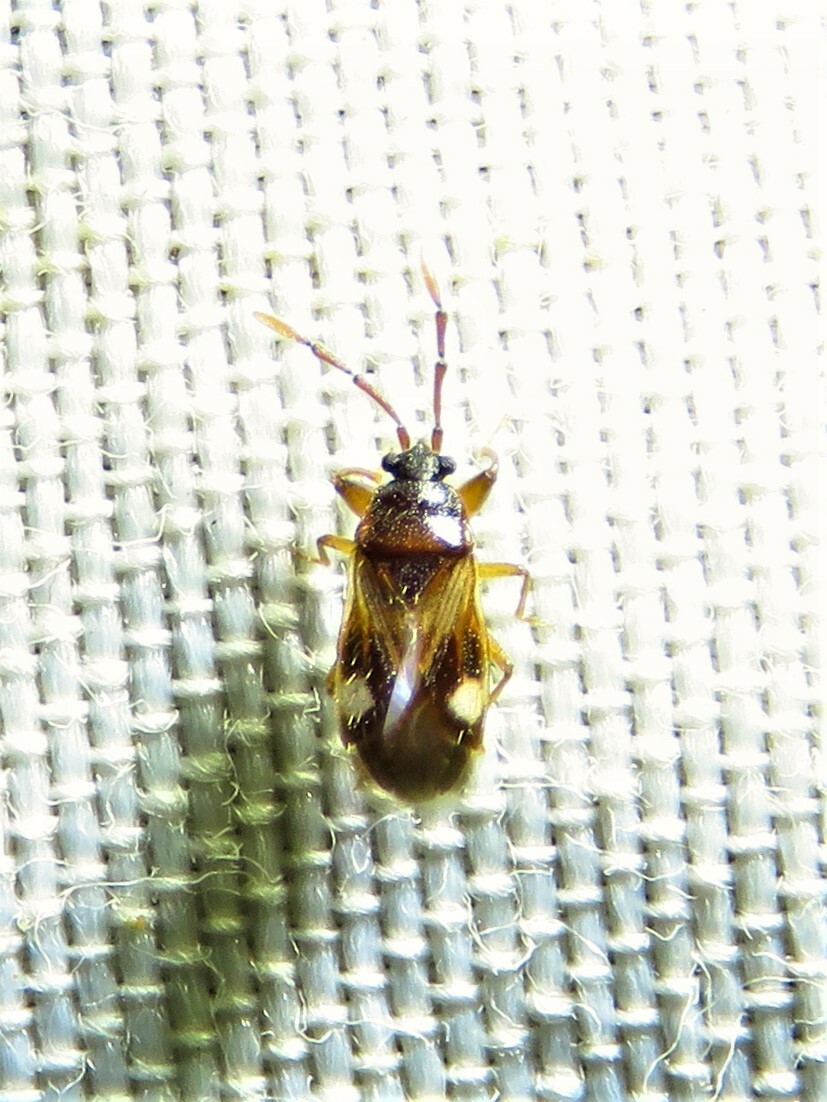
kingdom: Animalia
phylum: Arthropoda
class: Insecta
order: Hemiptera
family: Rhyparochromidae
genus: Tempyra
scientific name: Tempyra biguttula
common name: Seed bug
